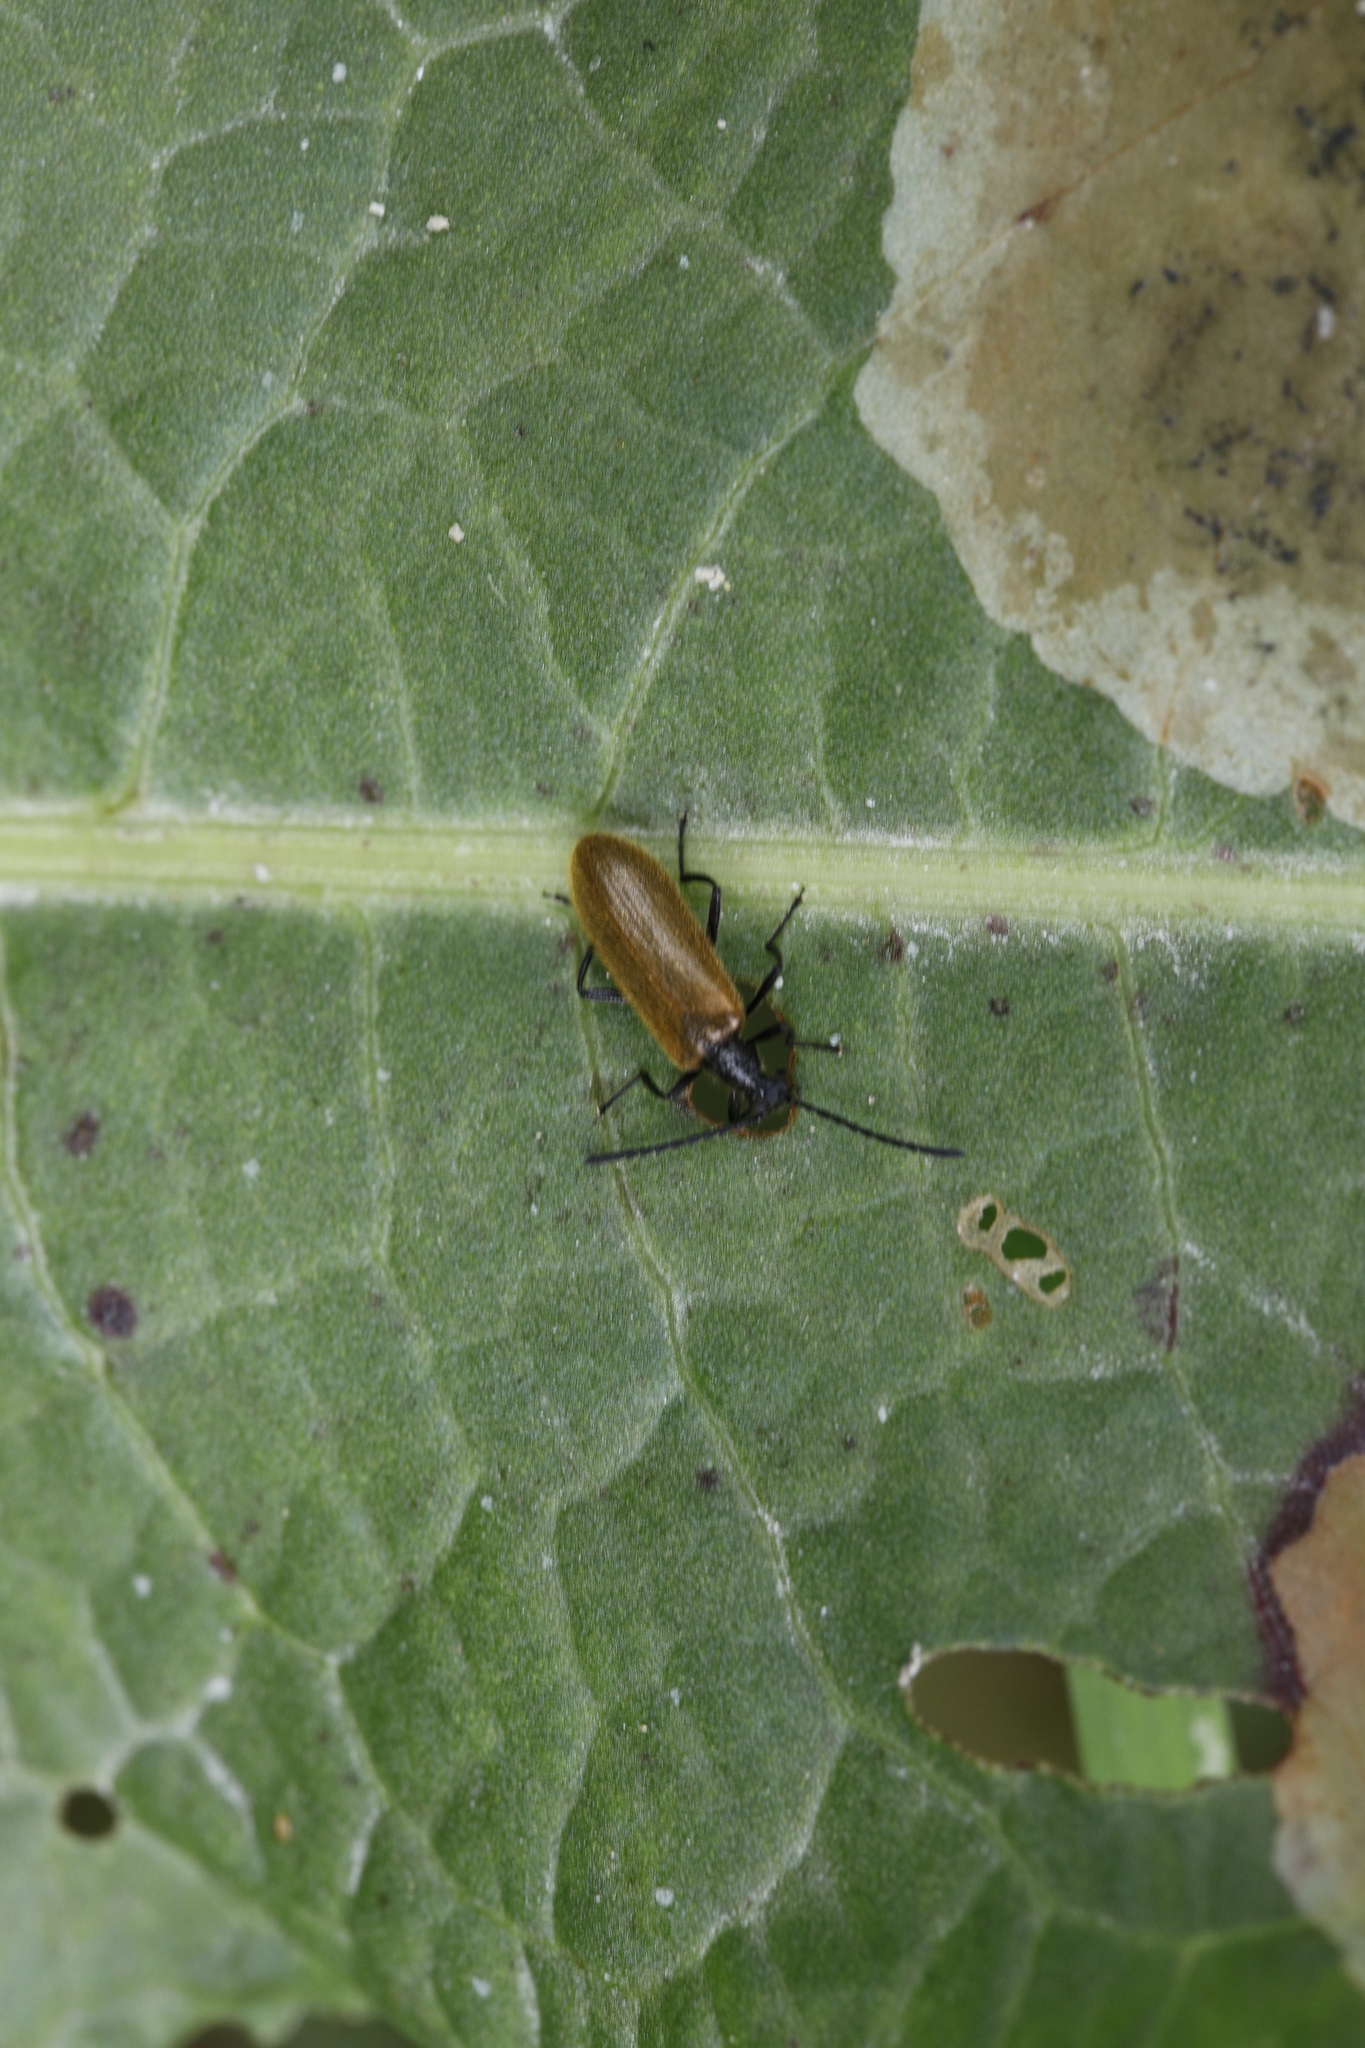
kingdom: Animalia
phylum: Arthropoda
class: Insecta
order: Coleoptera
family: Tenebrionidae
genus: Lagria
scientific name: Lagria hirta
